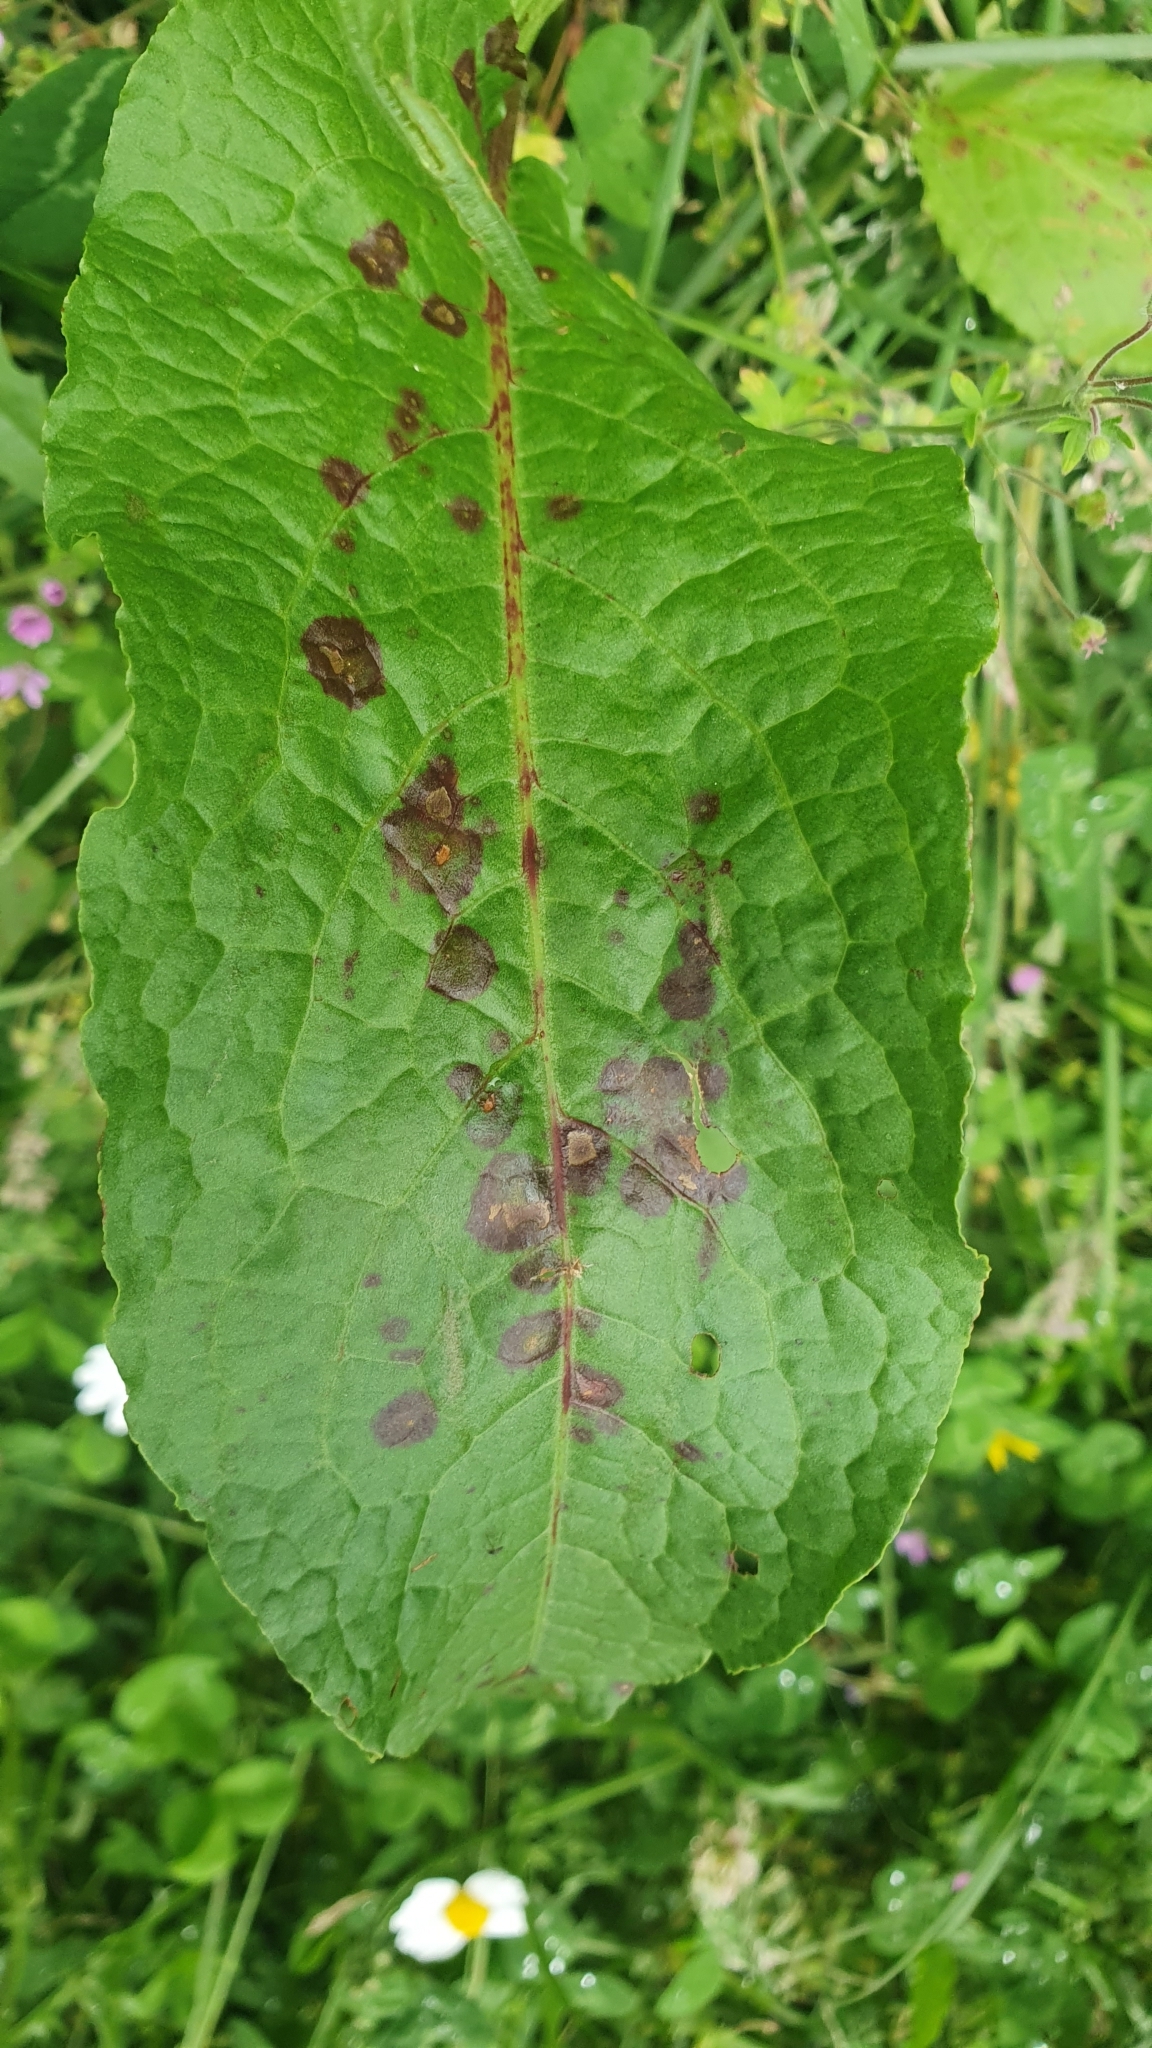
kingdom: Fungi
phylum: Ascomycota
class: Dothideomycetes
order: Mycosphaerellales
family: Mycosphaerellaceae
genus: Ramularia
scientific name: Ramularia rubella
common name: Red dock spot
